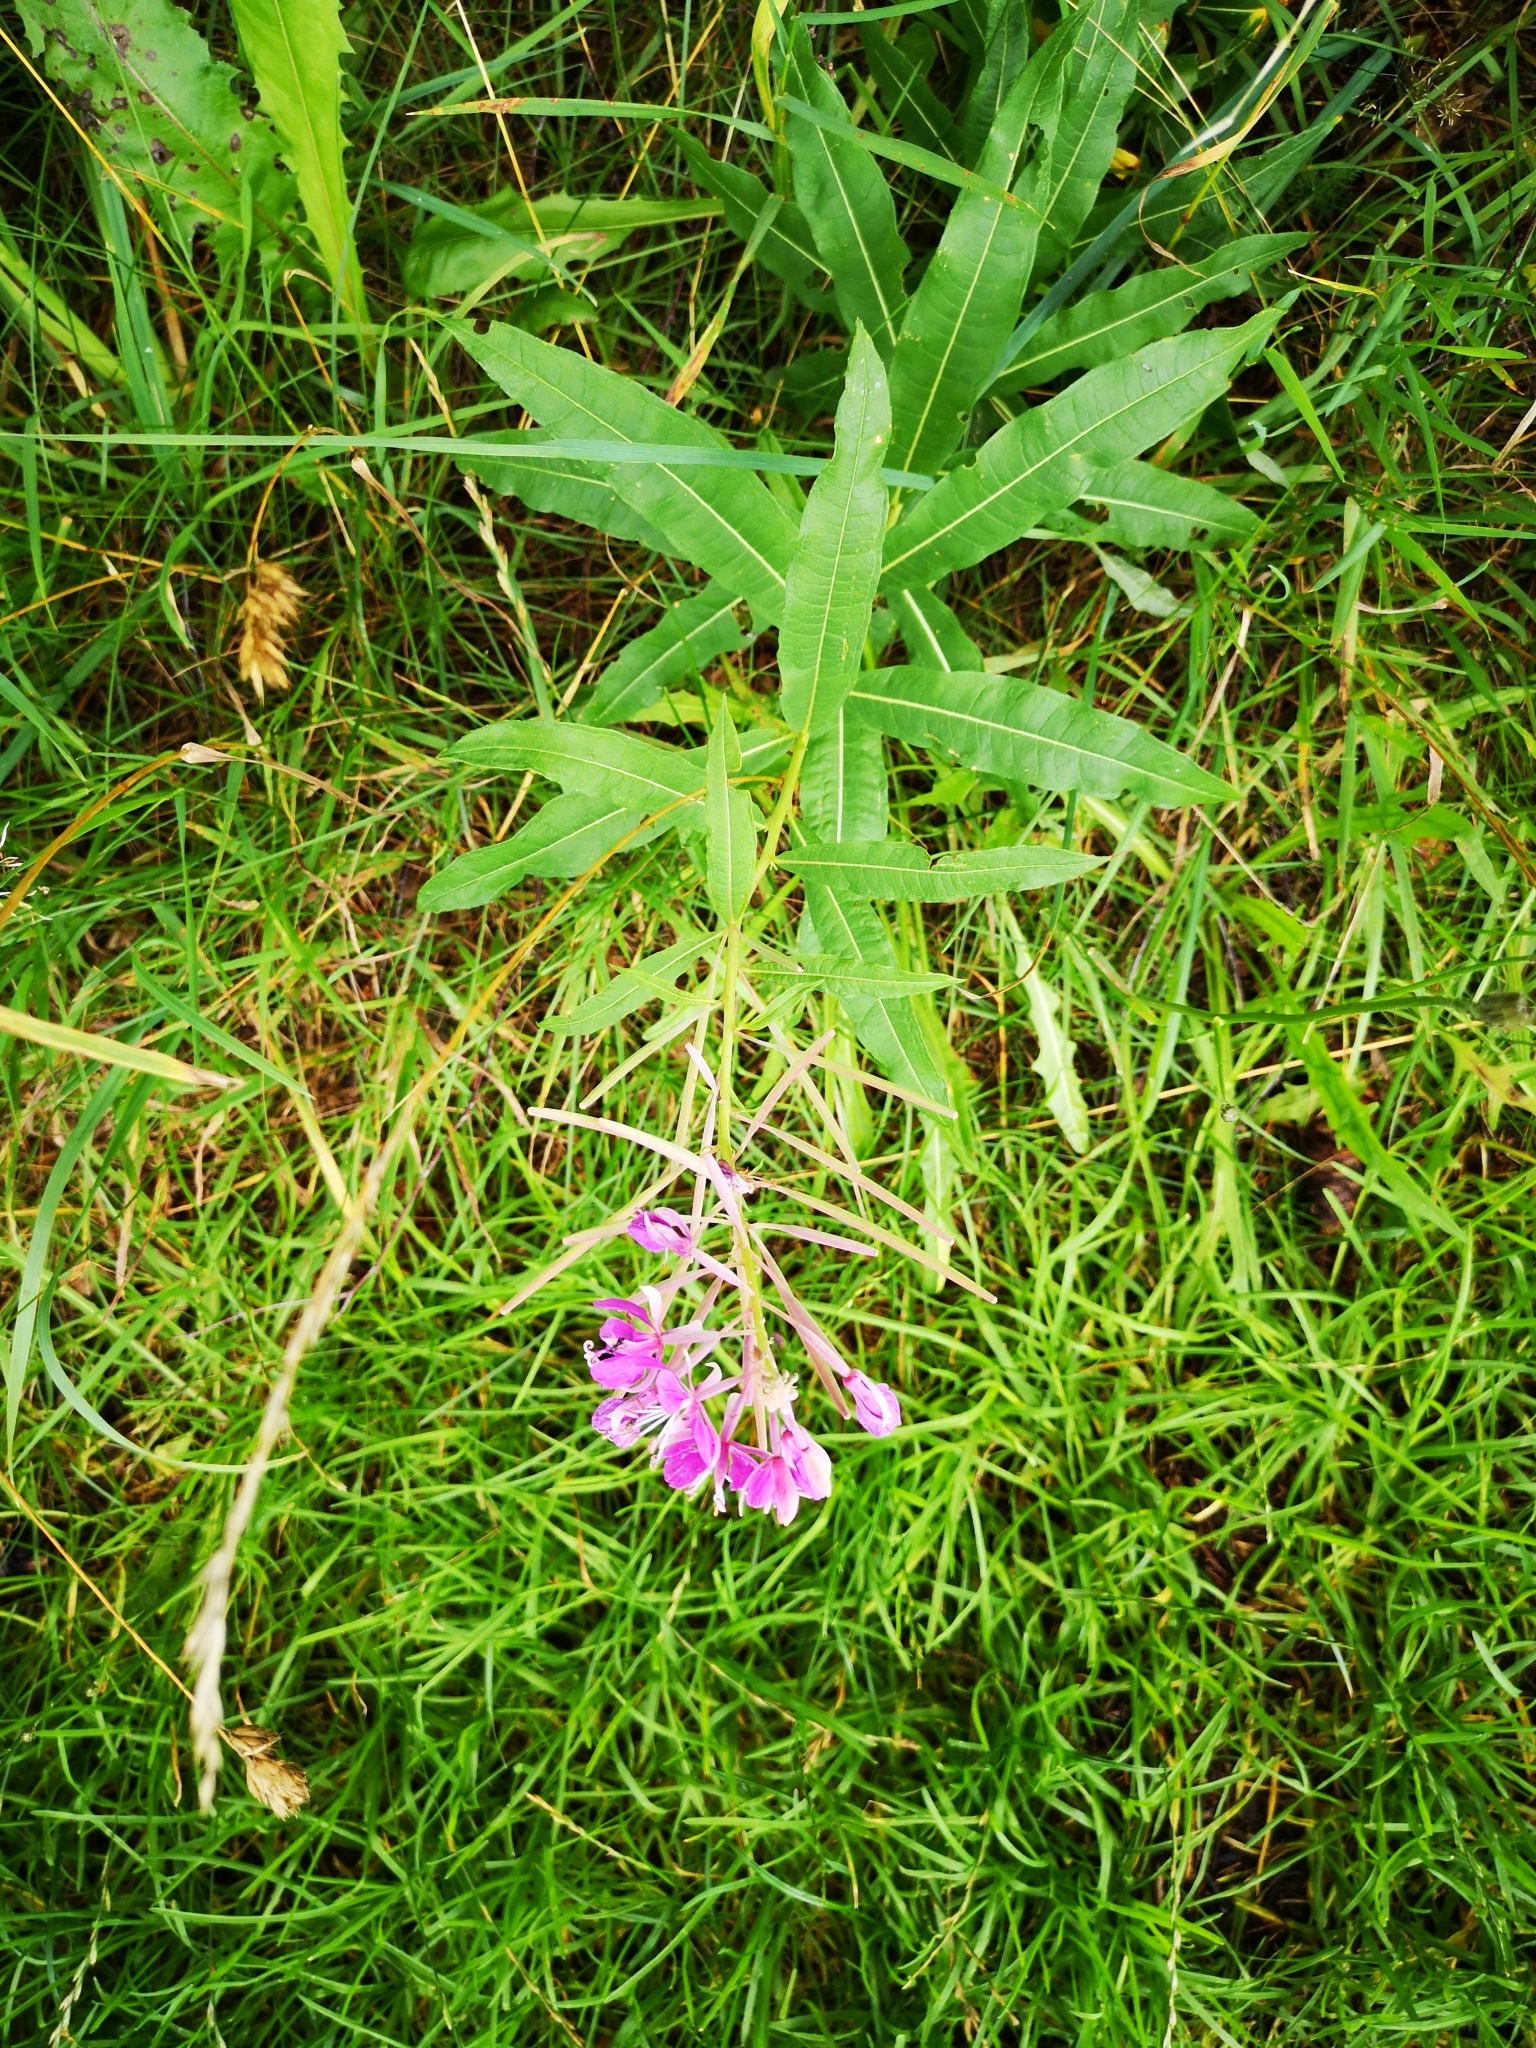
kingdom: Plantae
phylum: Tracheophyta
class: Magnoliopsida
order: Myrtales
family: Onagraceae
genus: Chamaenerion
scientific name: Chamaenerion angustifolium
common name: Fireweed
